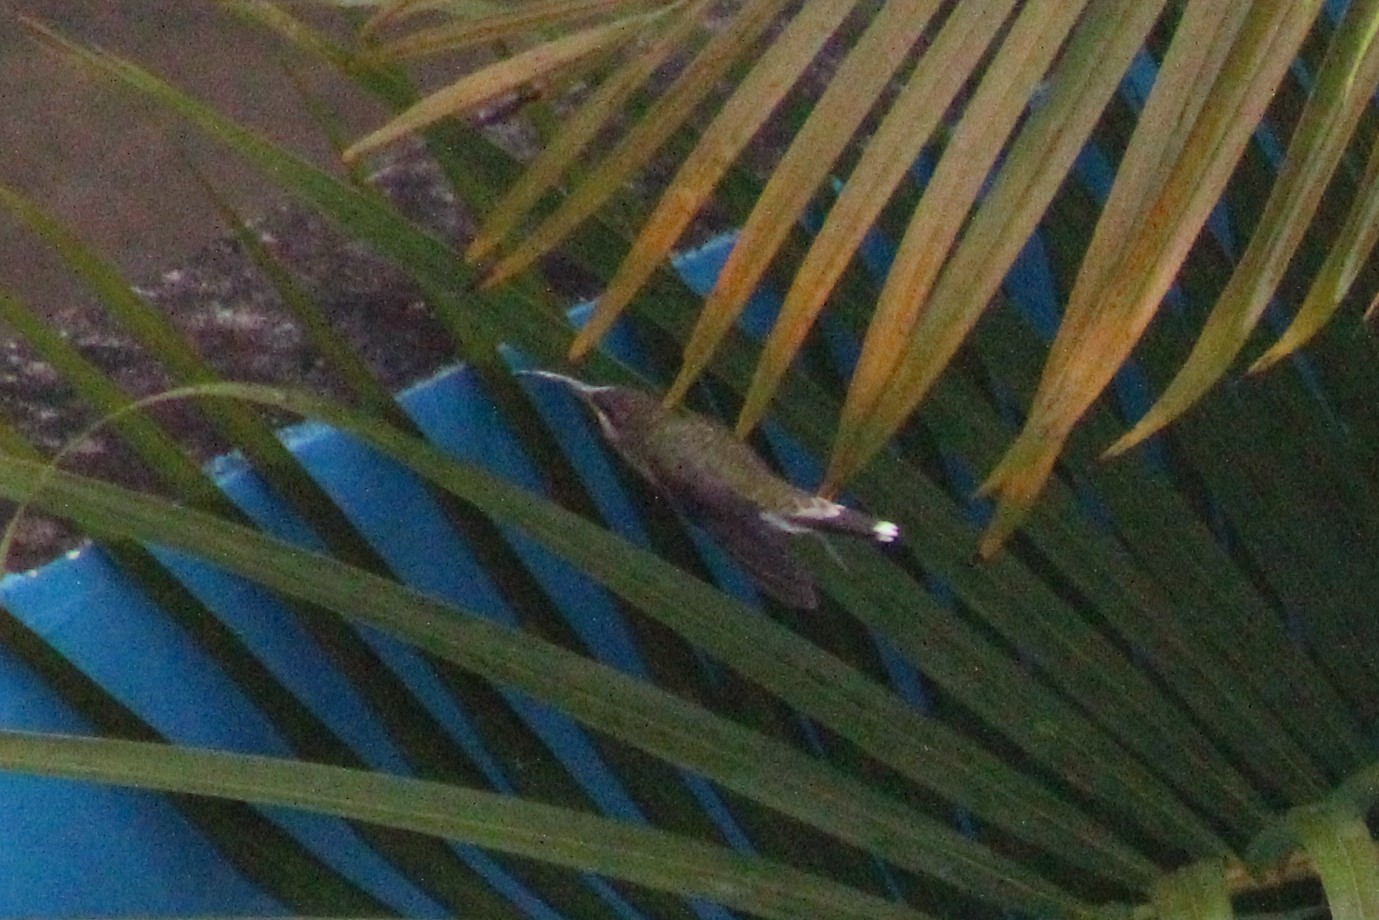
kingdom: Animalia
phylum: Chordata
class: Aves
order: Apodiformes
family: Trochilidae
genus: Threnetes
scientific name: Threnetes leucurus
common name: Pale-tailed barbthroat
